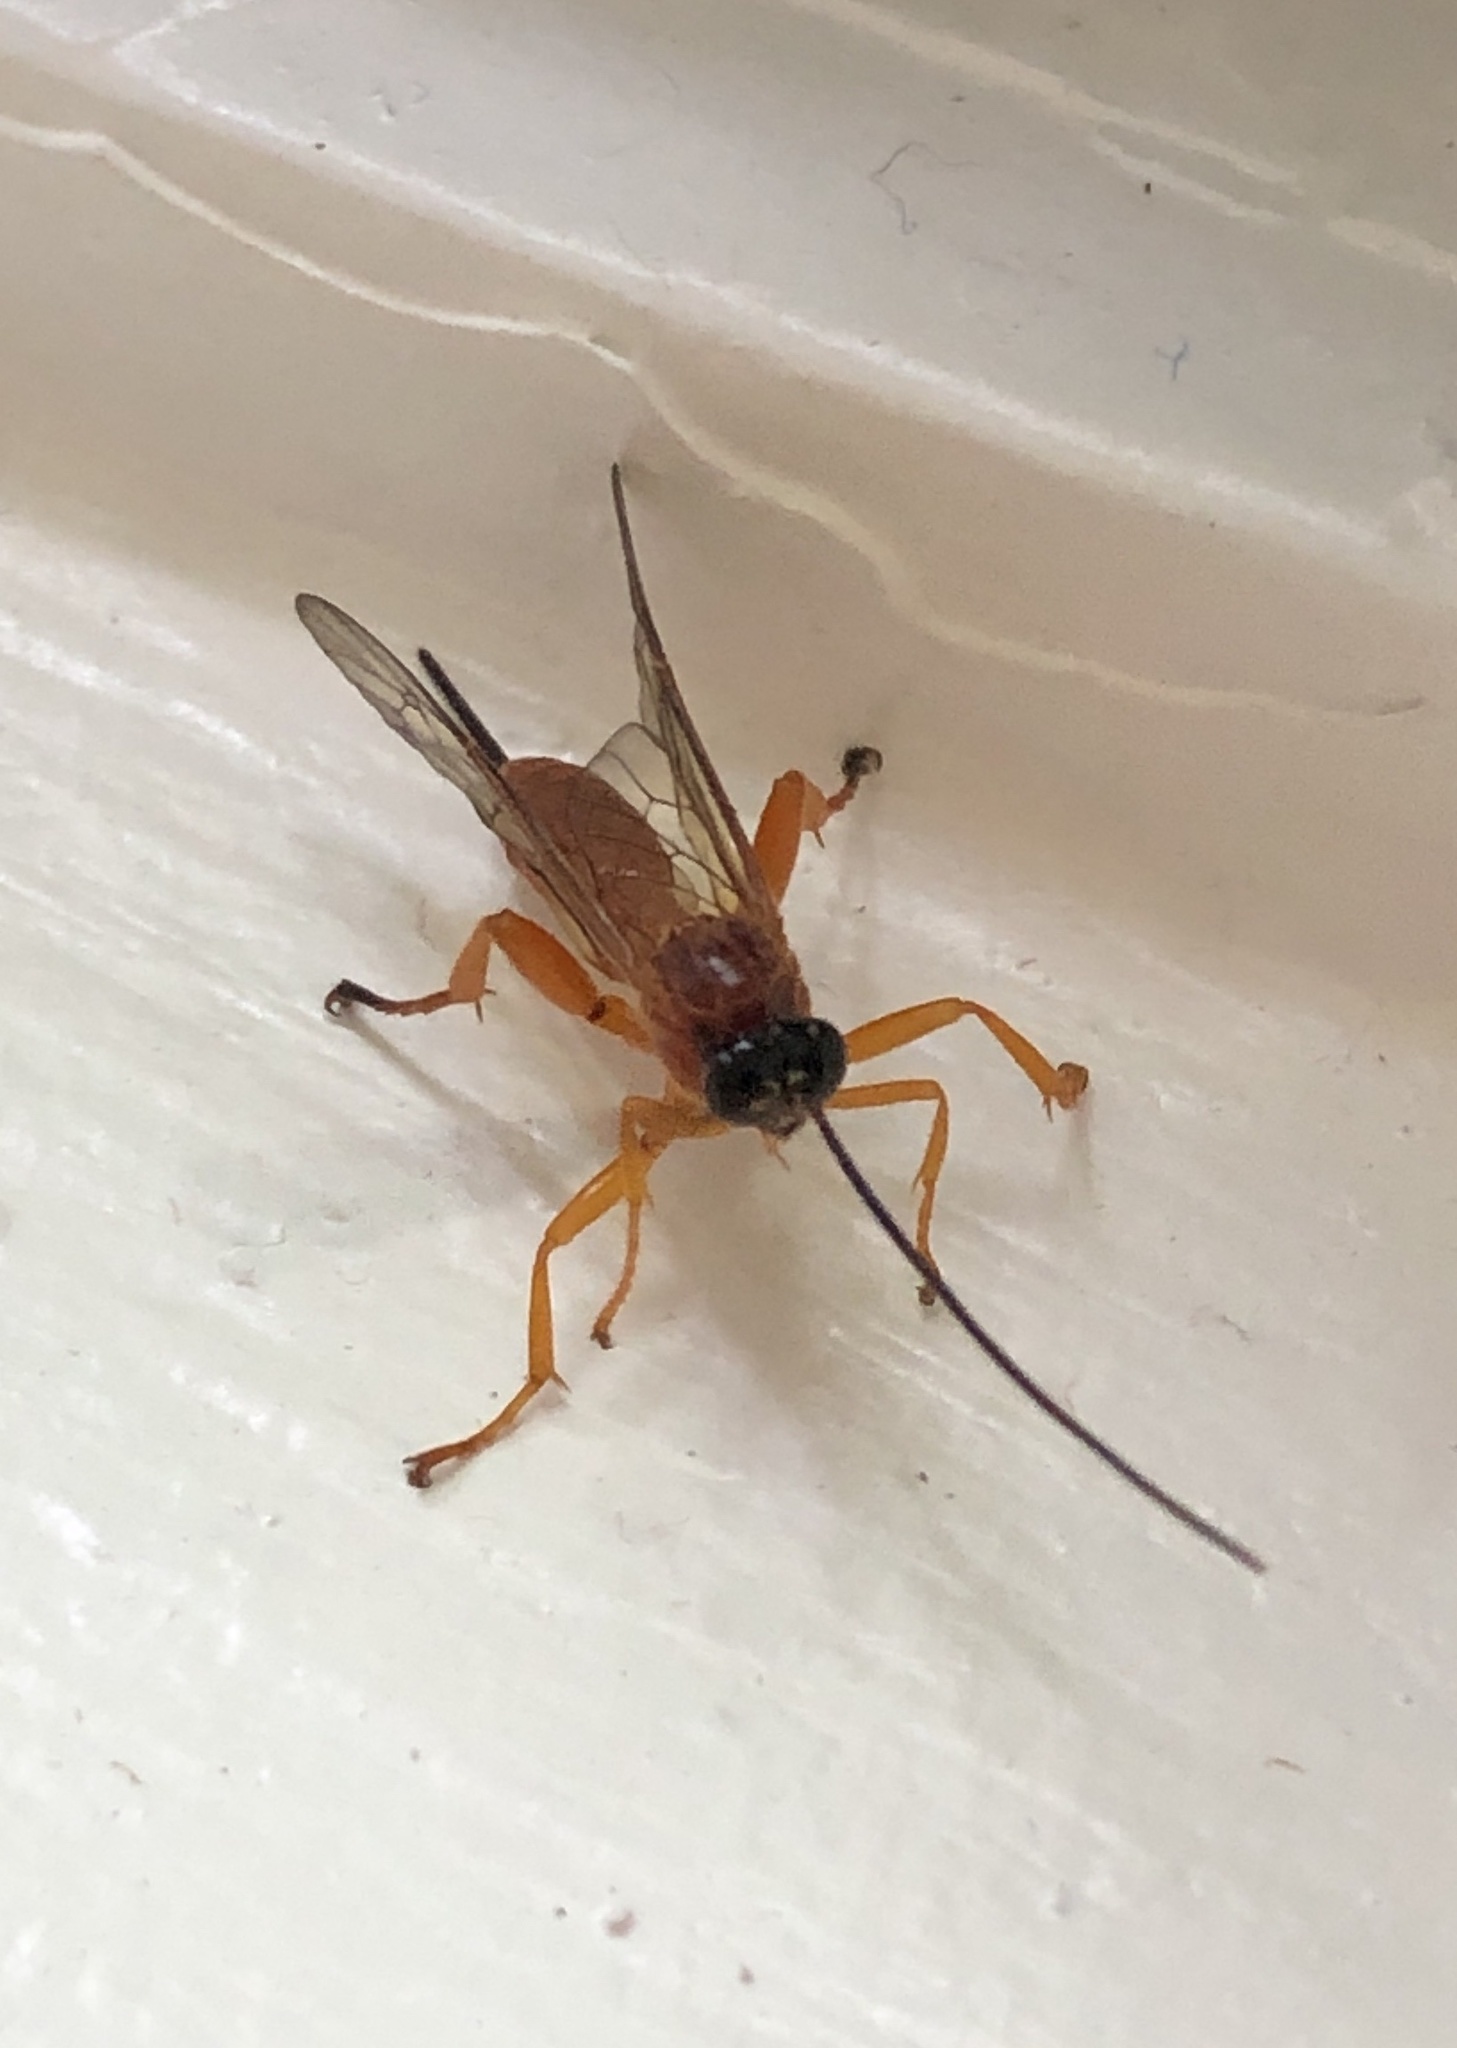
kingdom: Animalia
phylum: Arthropoda
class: Insecta
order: Hymenoptera
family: Ichneumonidae
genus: Theronia
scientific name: Theronia hilaris
